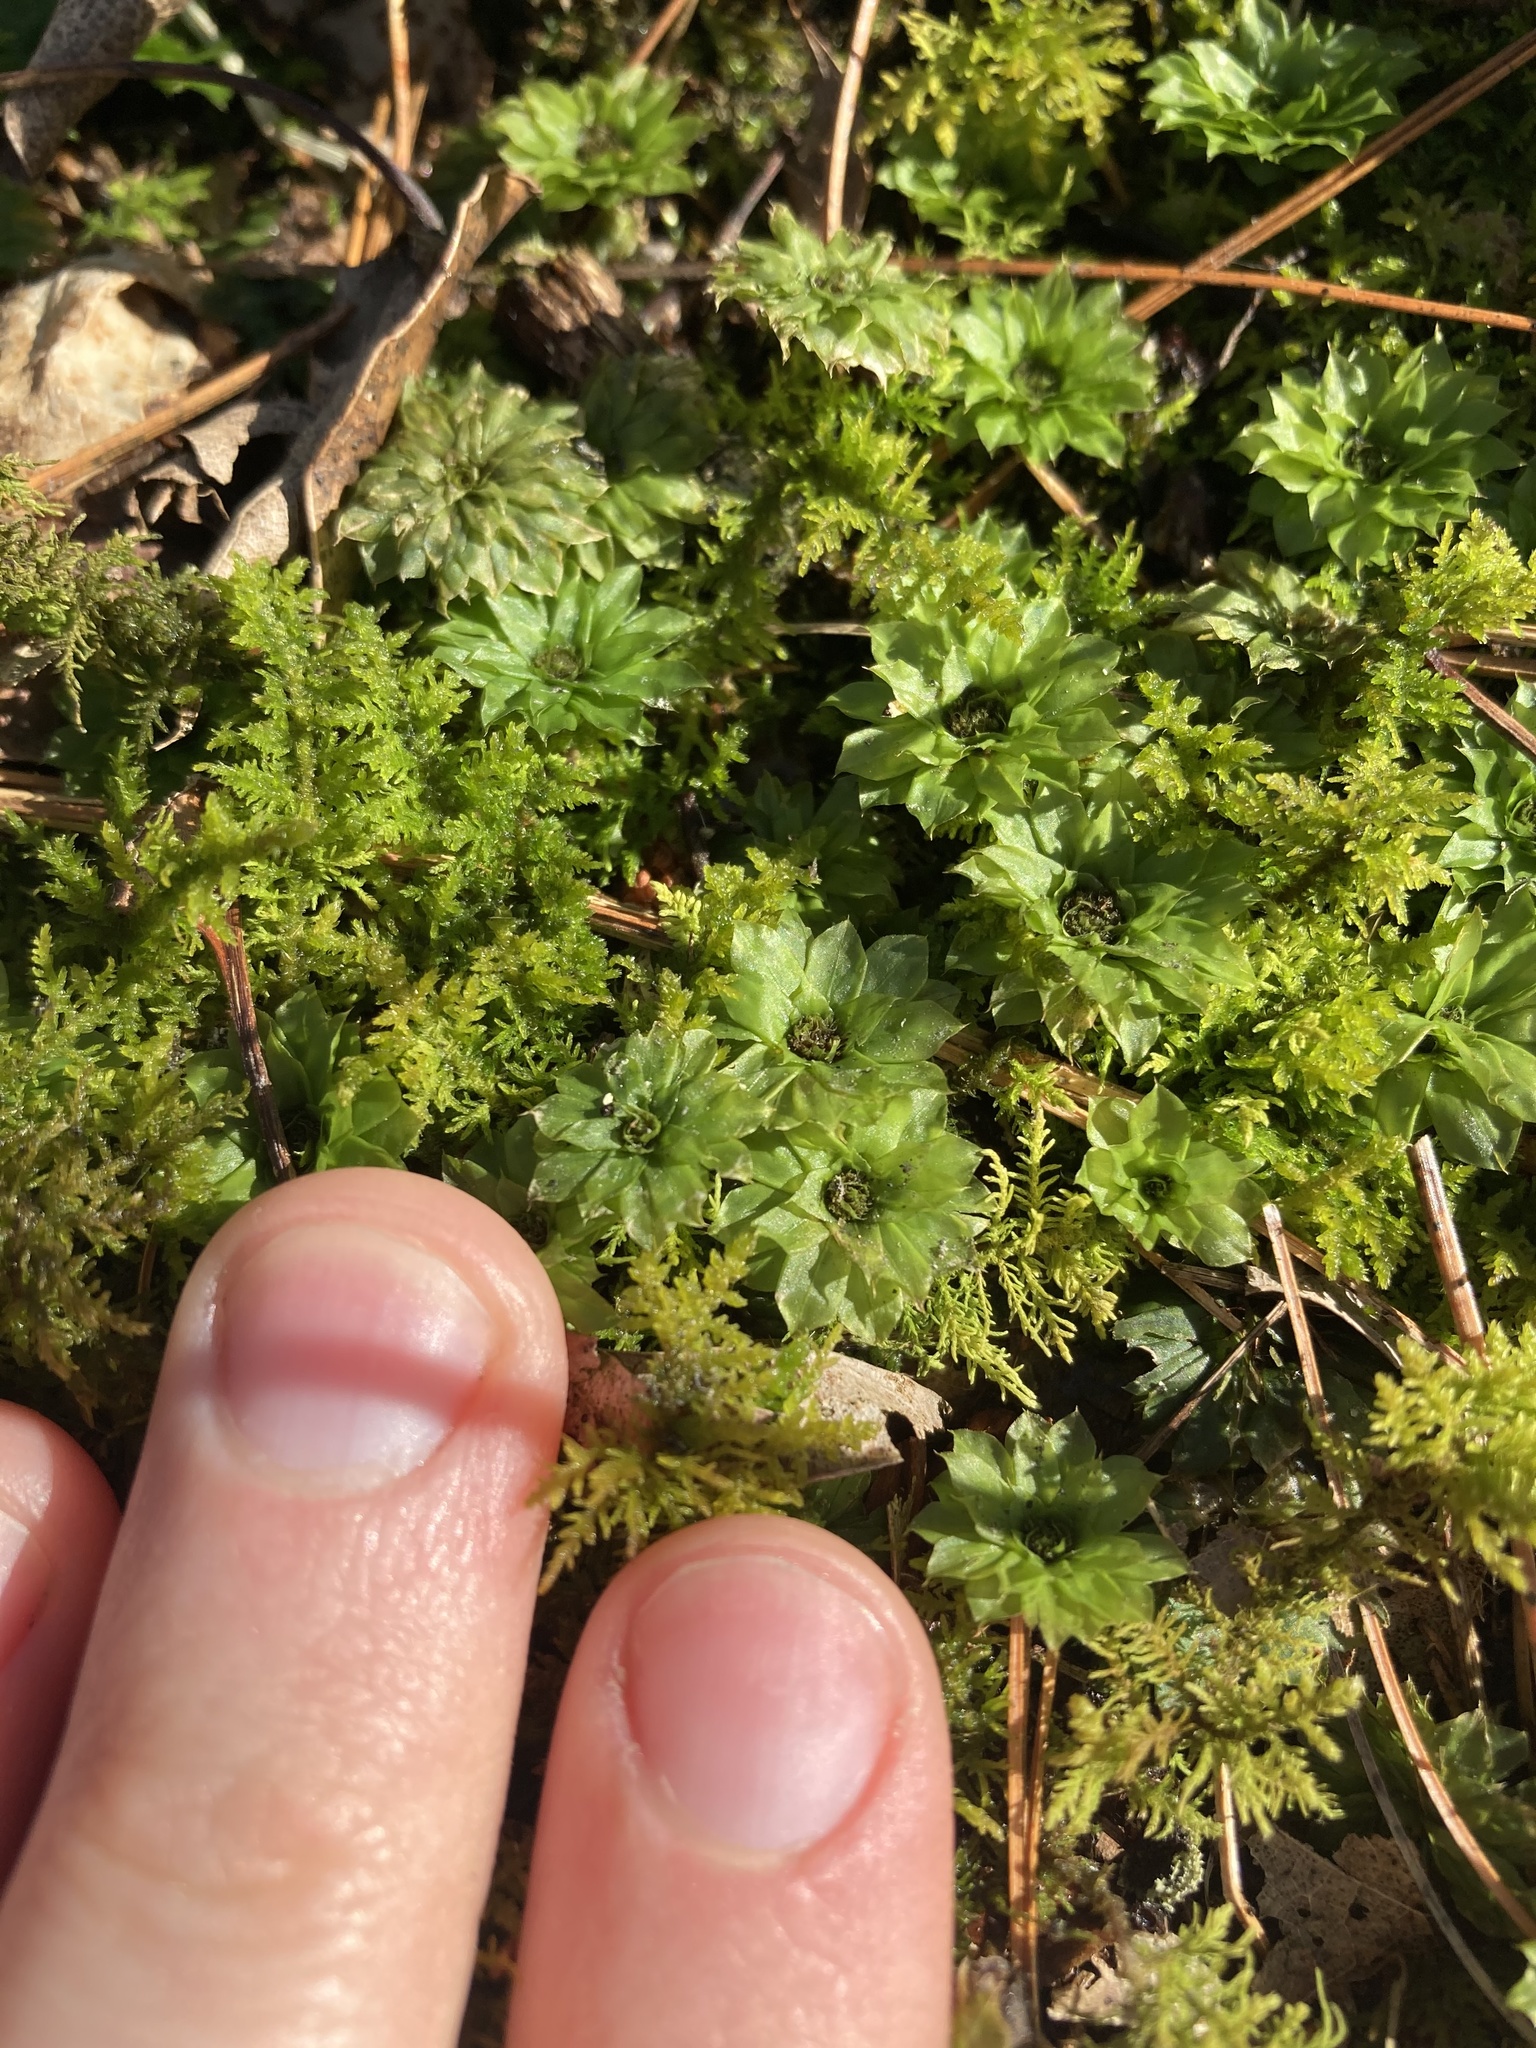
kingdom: Plantae
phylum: Bryophyta
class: Bryopsida
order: Bryales
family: Bryaceae
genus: Rhodobryum
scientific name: Rhodobryum ontariense
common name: Ontario rhodobryum moss
